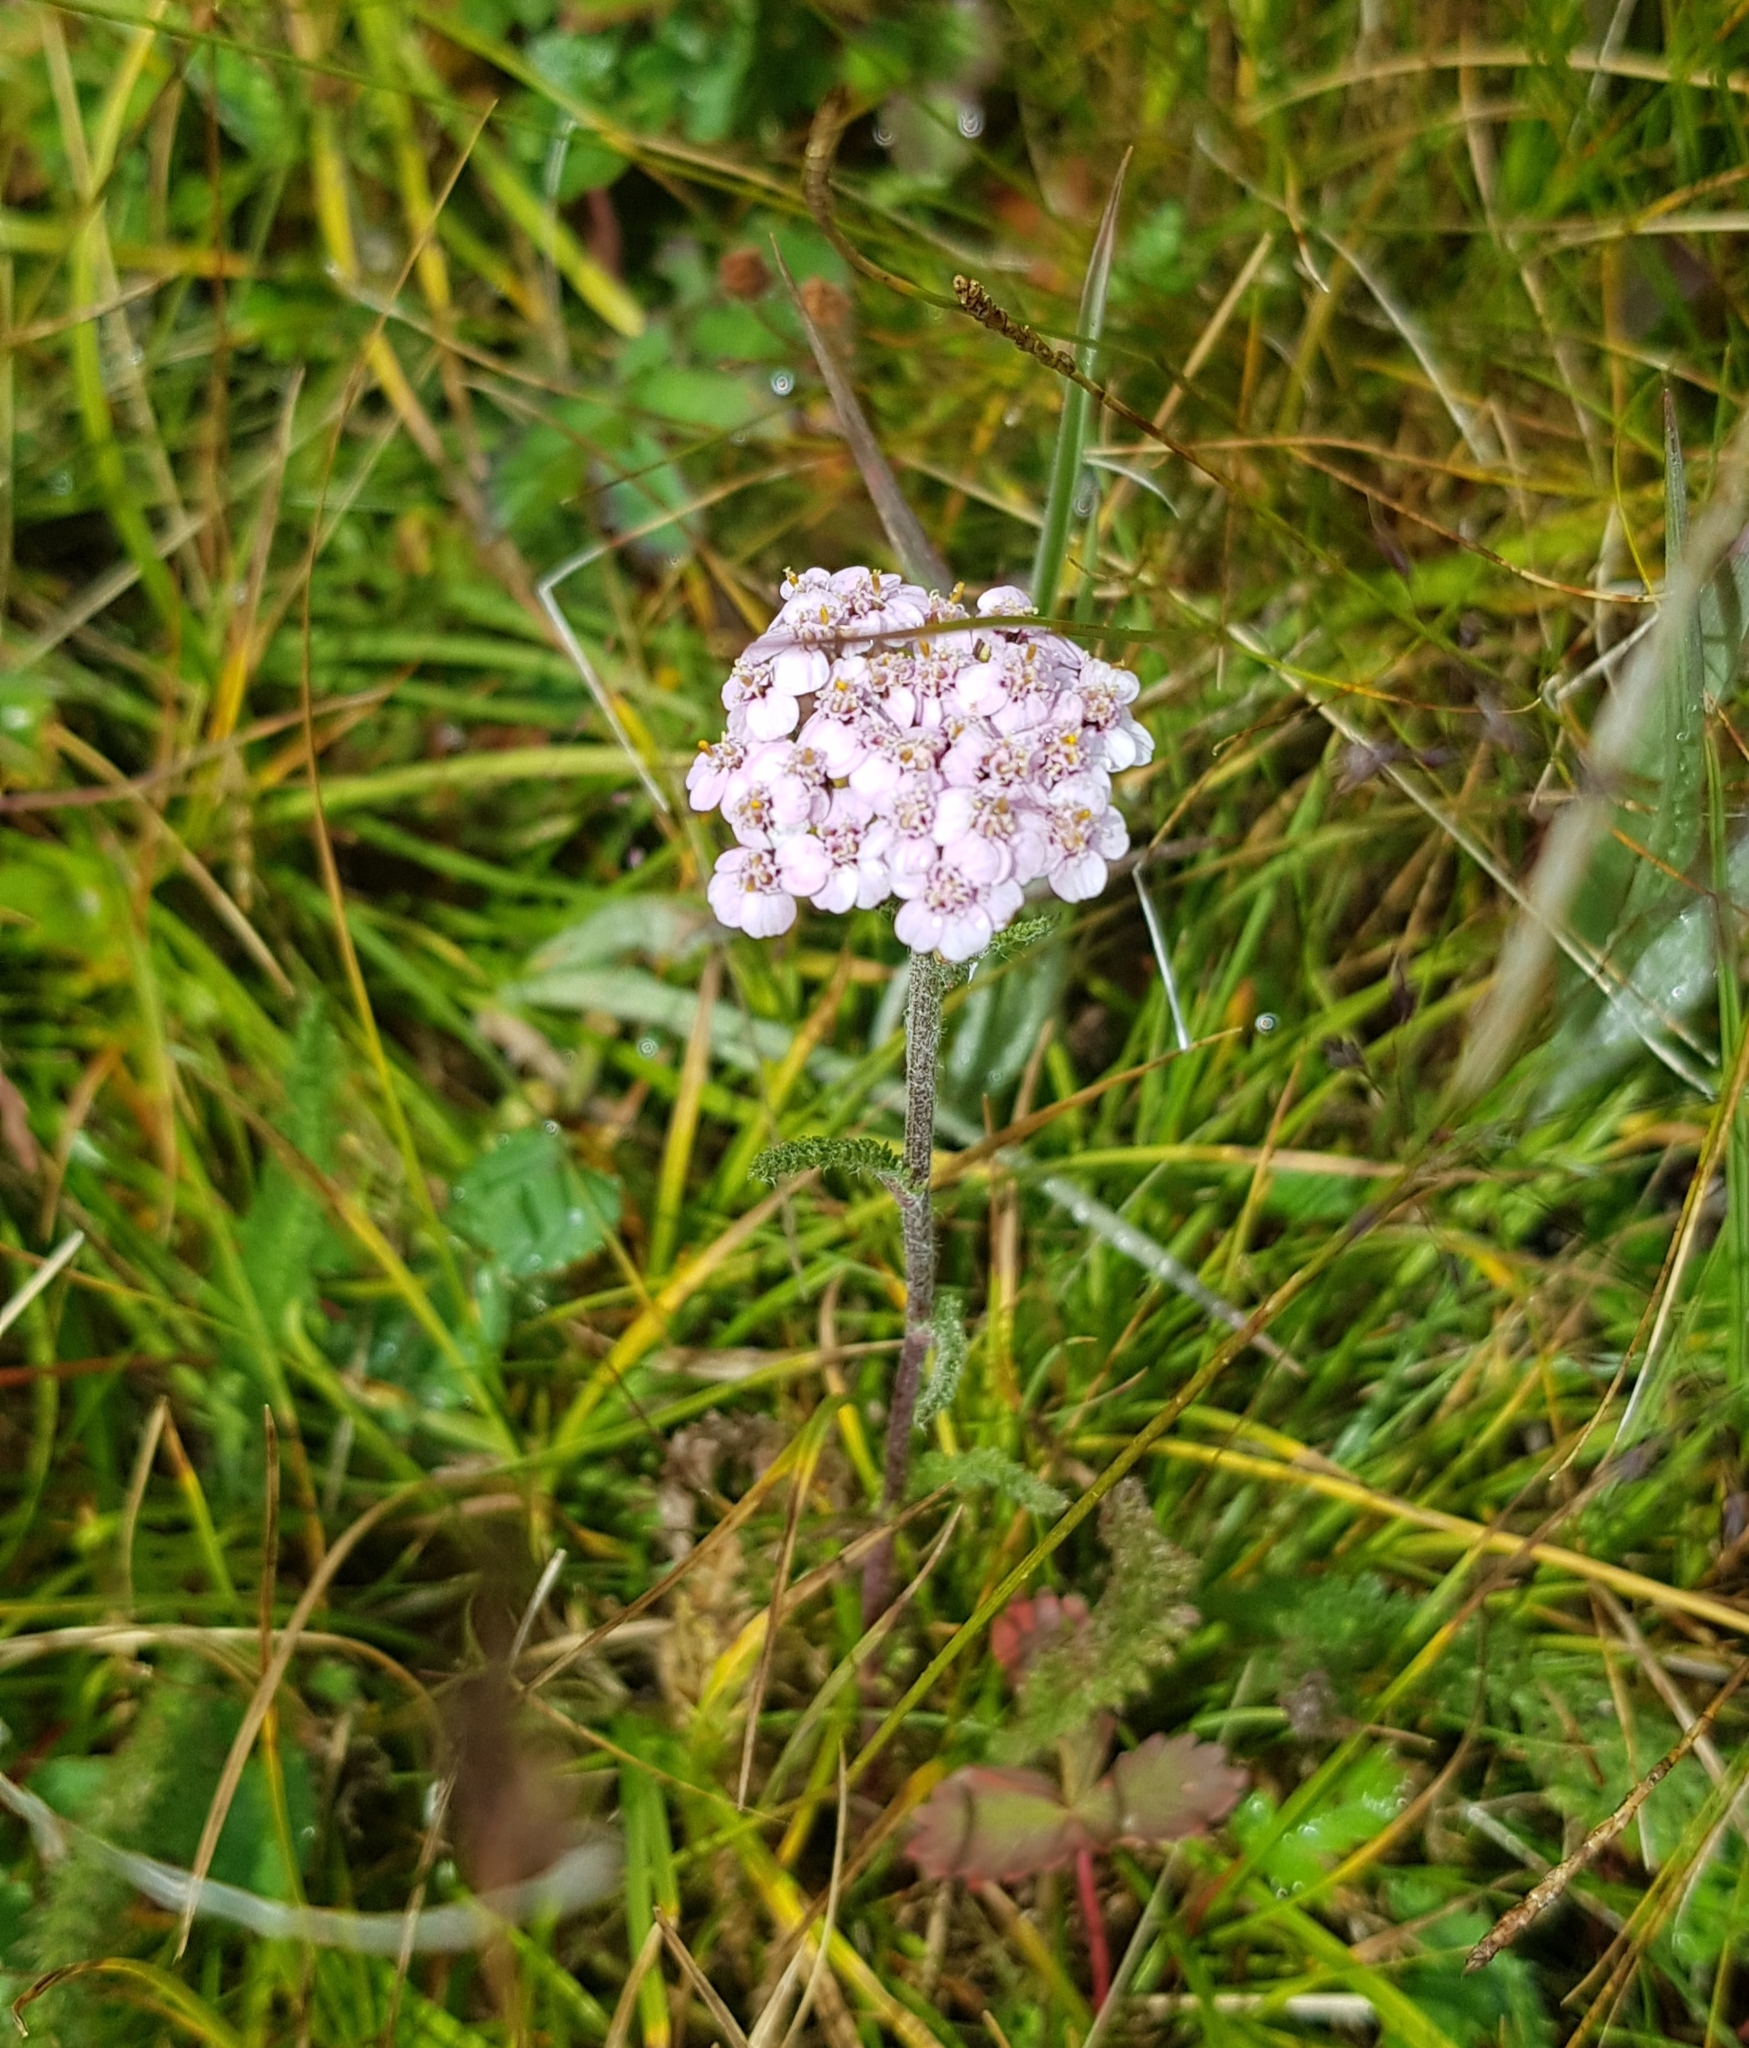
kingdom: Plantae
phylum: Tracheophyta
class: Magnoliopsida
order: Asterales
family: Asteraceae
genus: Achillea
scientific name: Achillea asiatica
